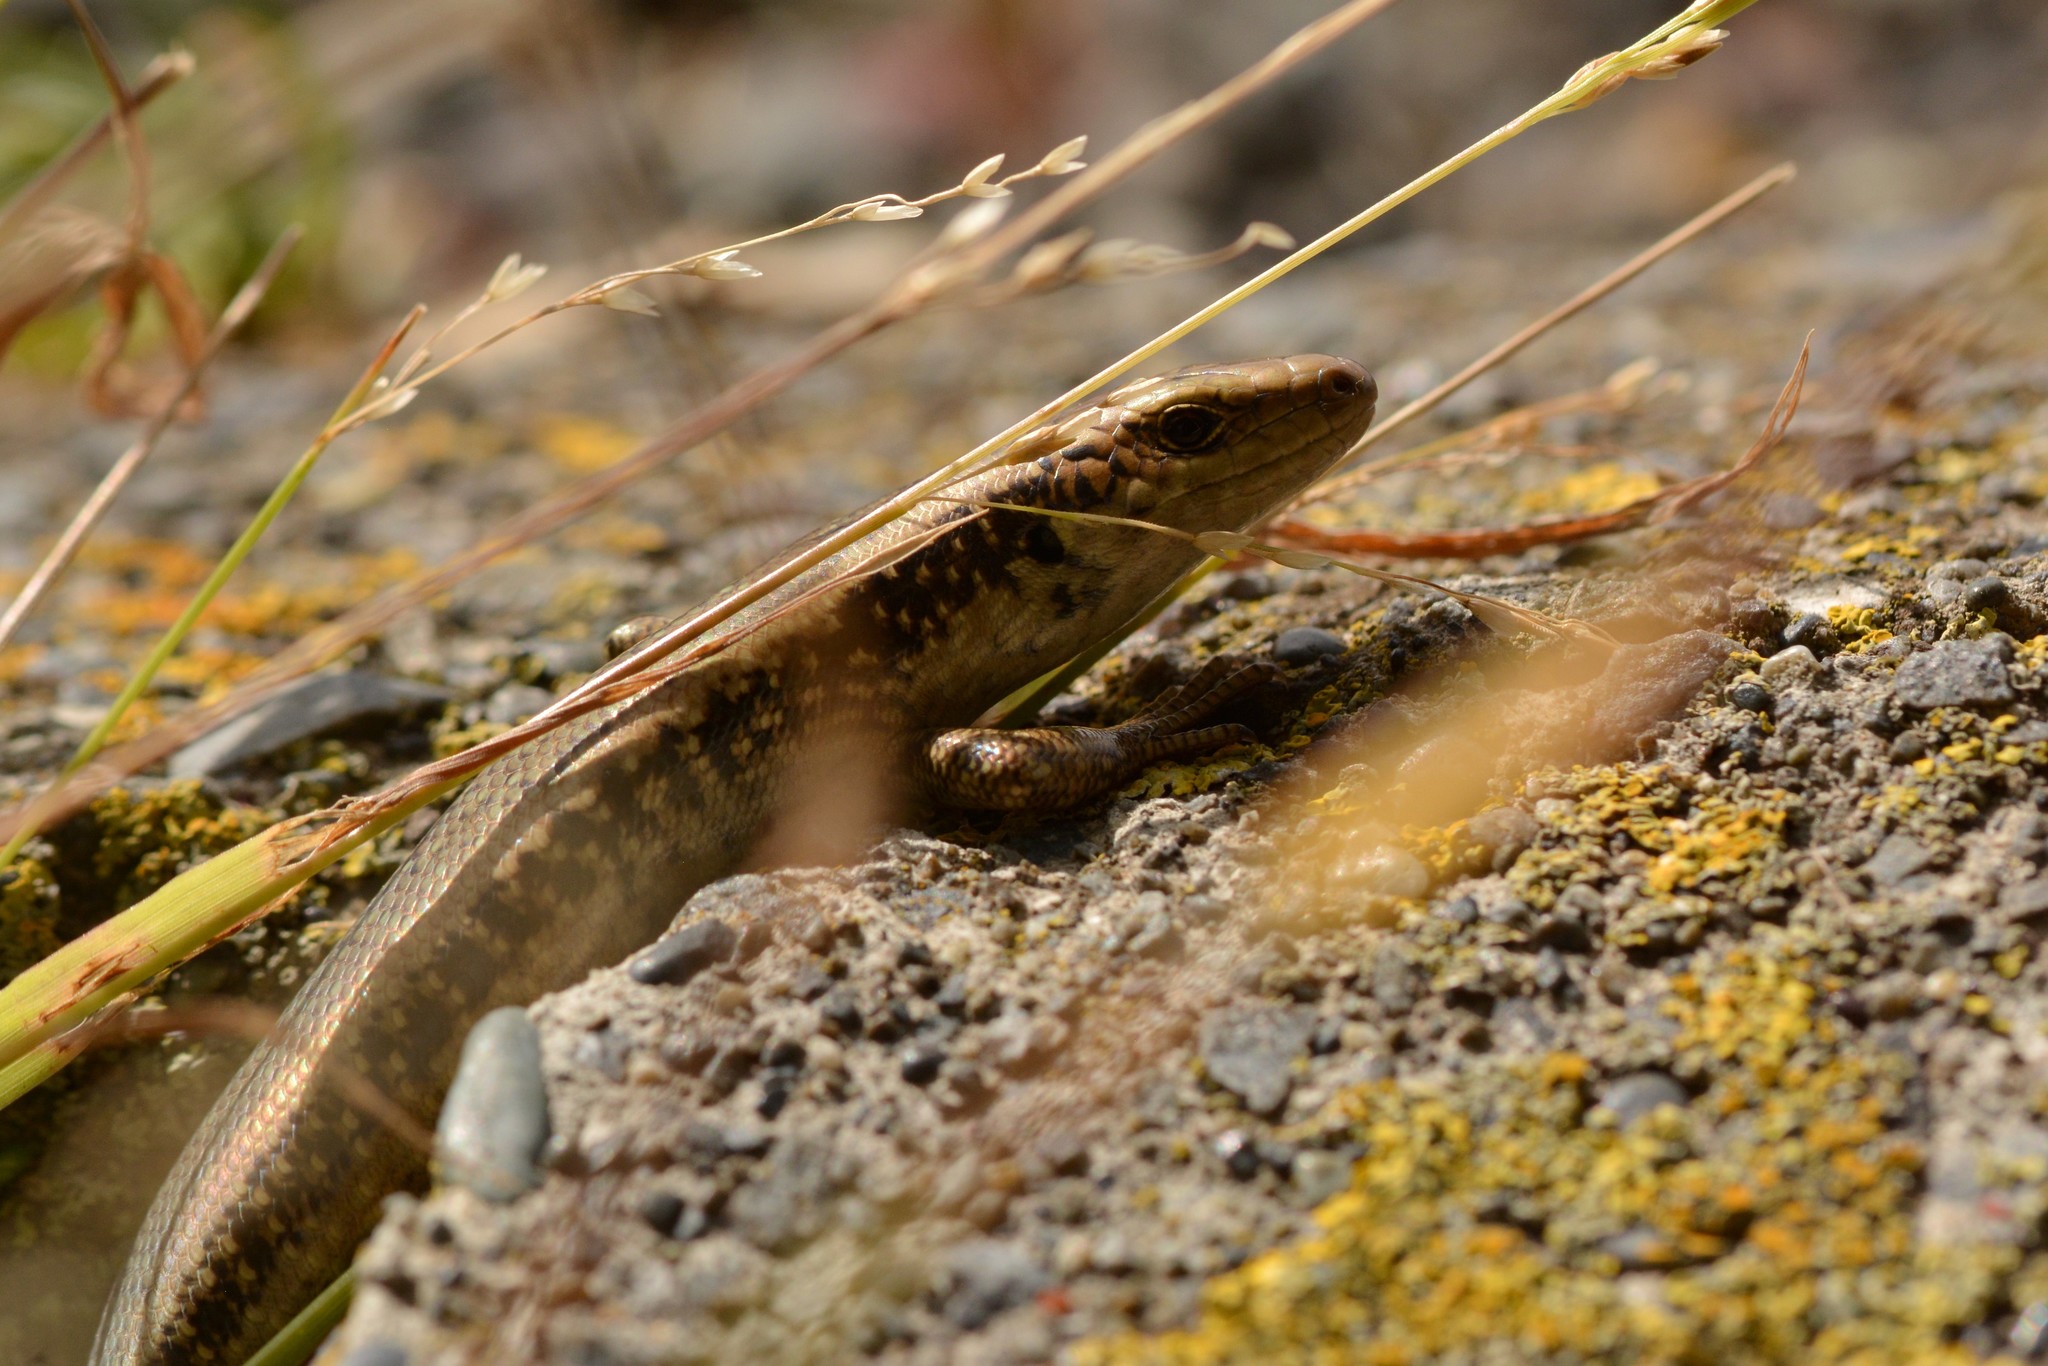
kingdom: Animalia
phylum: Chordata
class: Squamata
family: Scincidae
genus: Oligosoma
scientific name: Oligosoma kokowai
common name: Northern spotted skink
